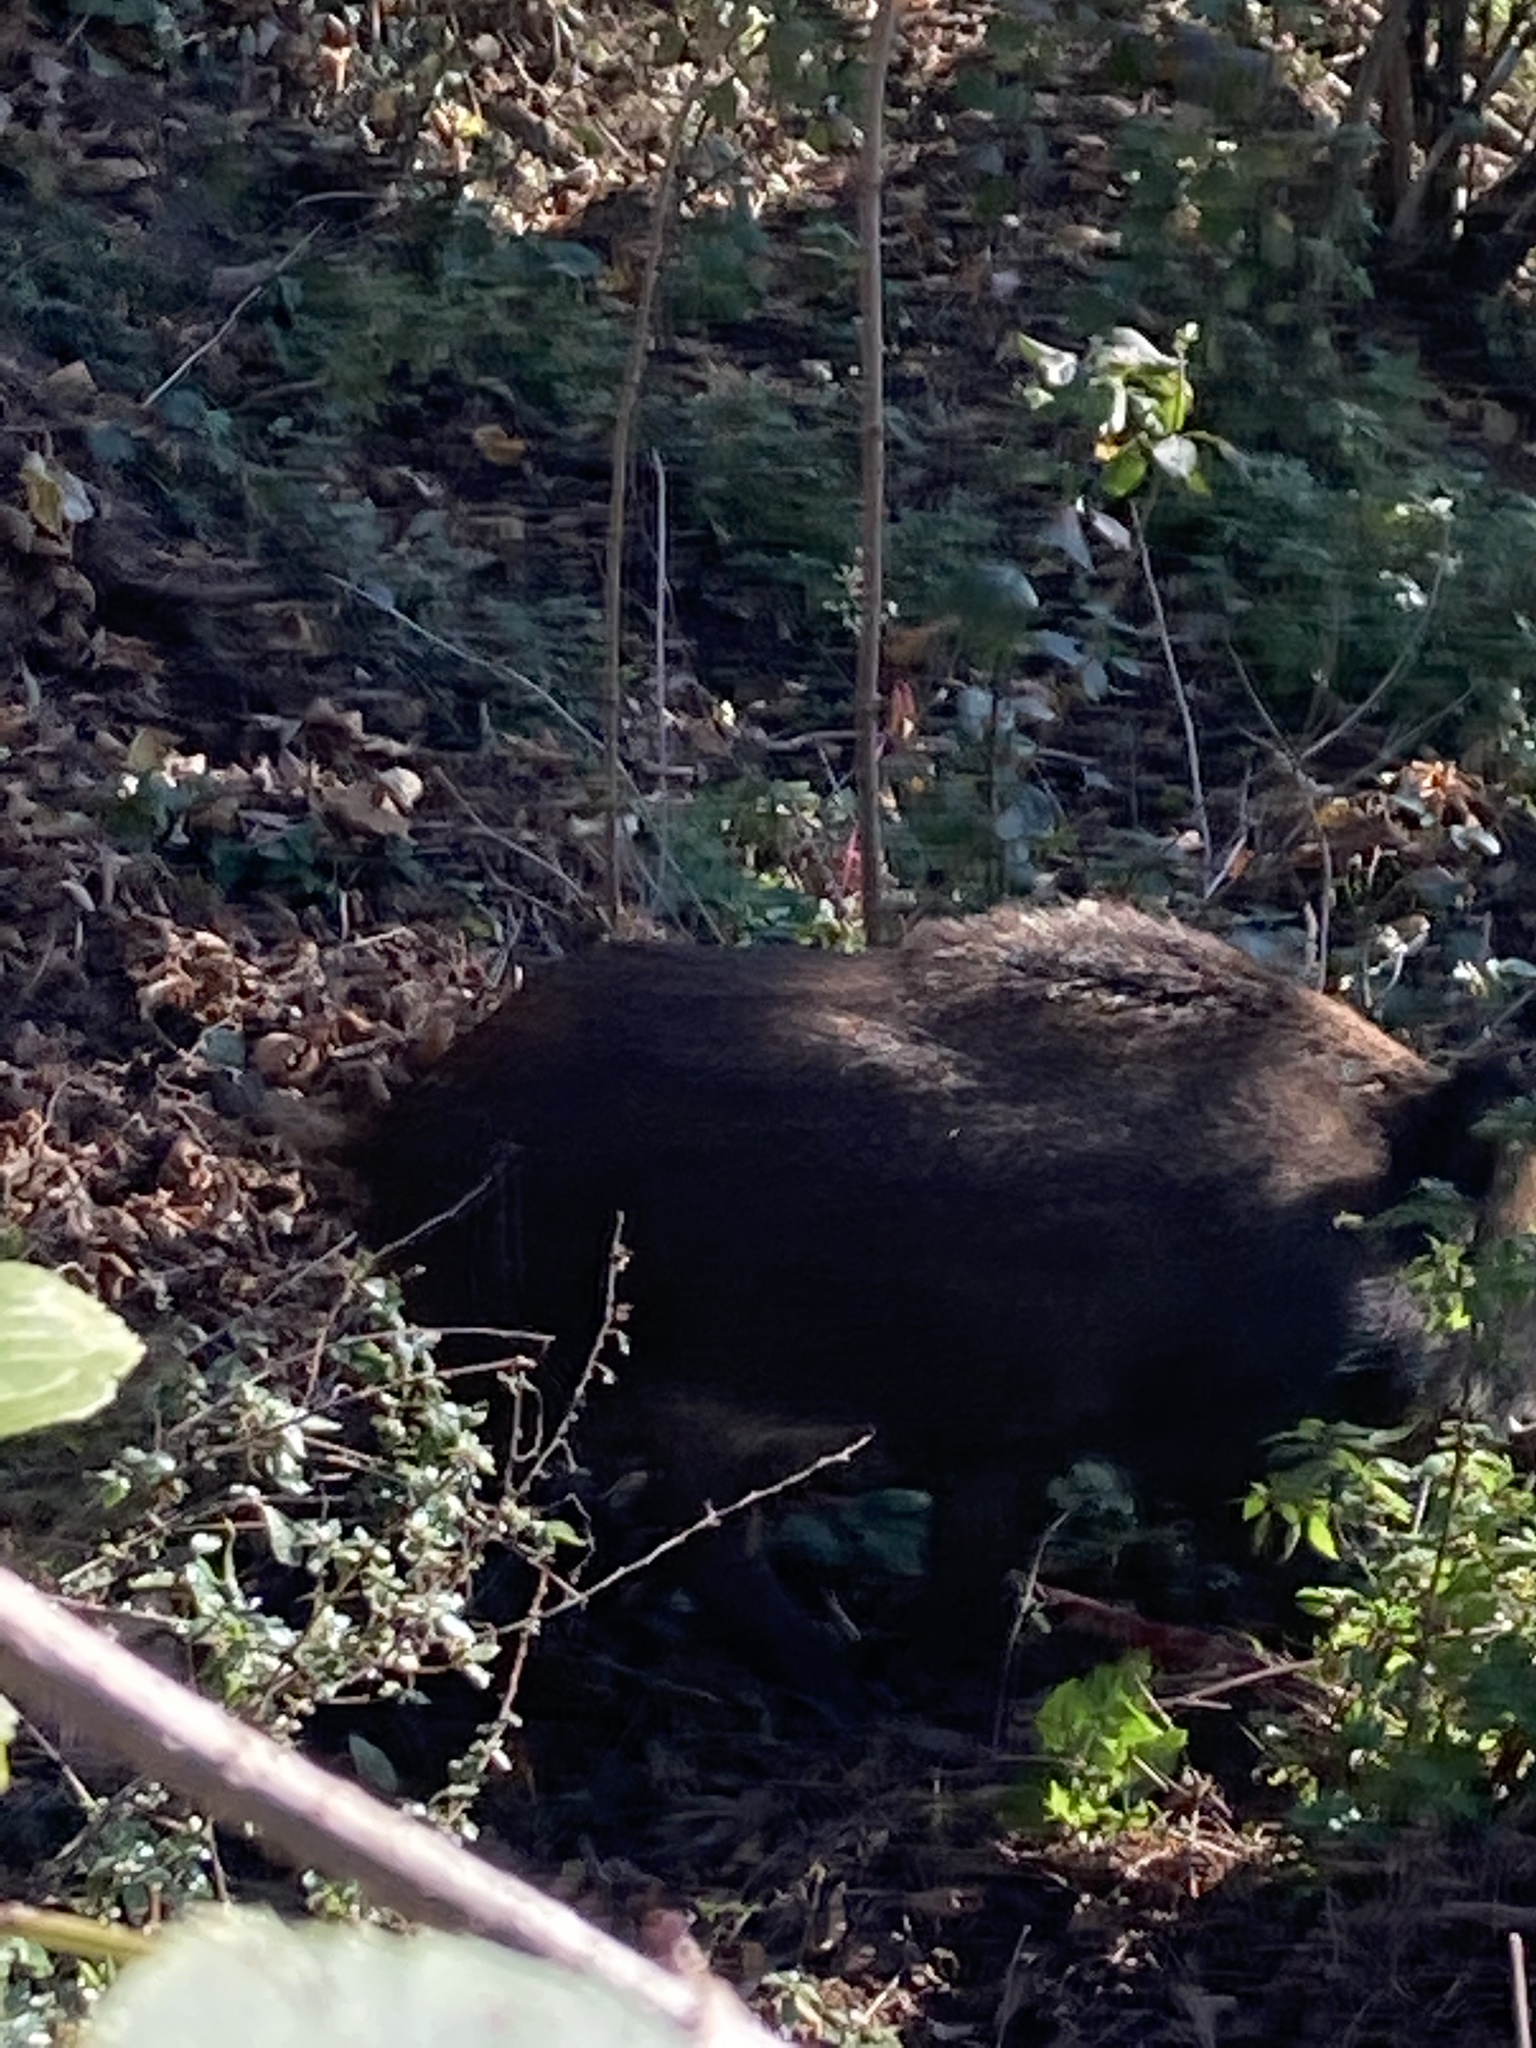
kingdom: Animalia
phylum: Chordata
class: Mammalia
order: Artiodactyla
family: Suidae
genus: Sus
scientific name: Sus scrofa
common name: Wild boar
